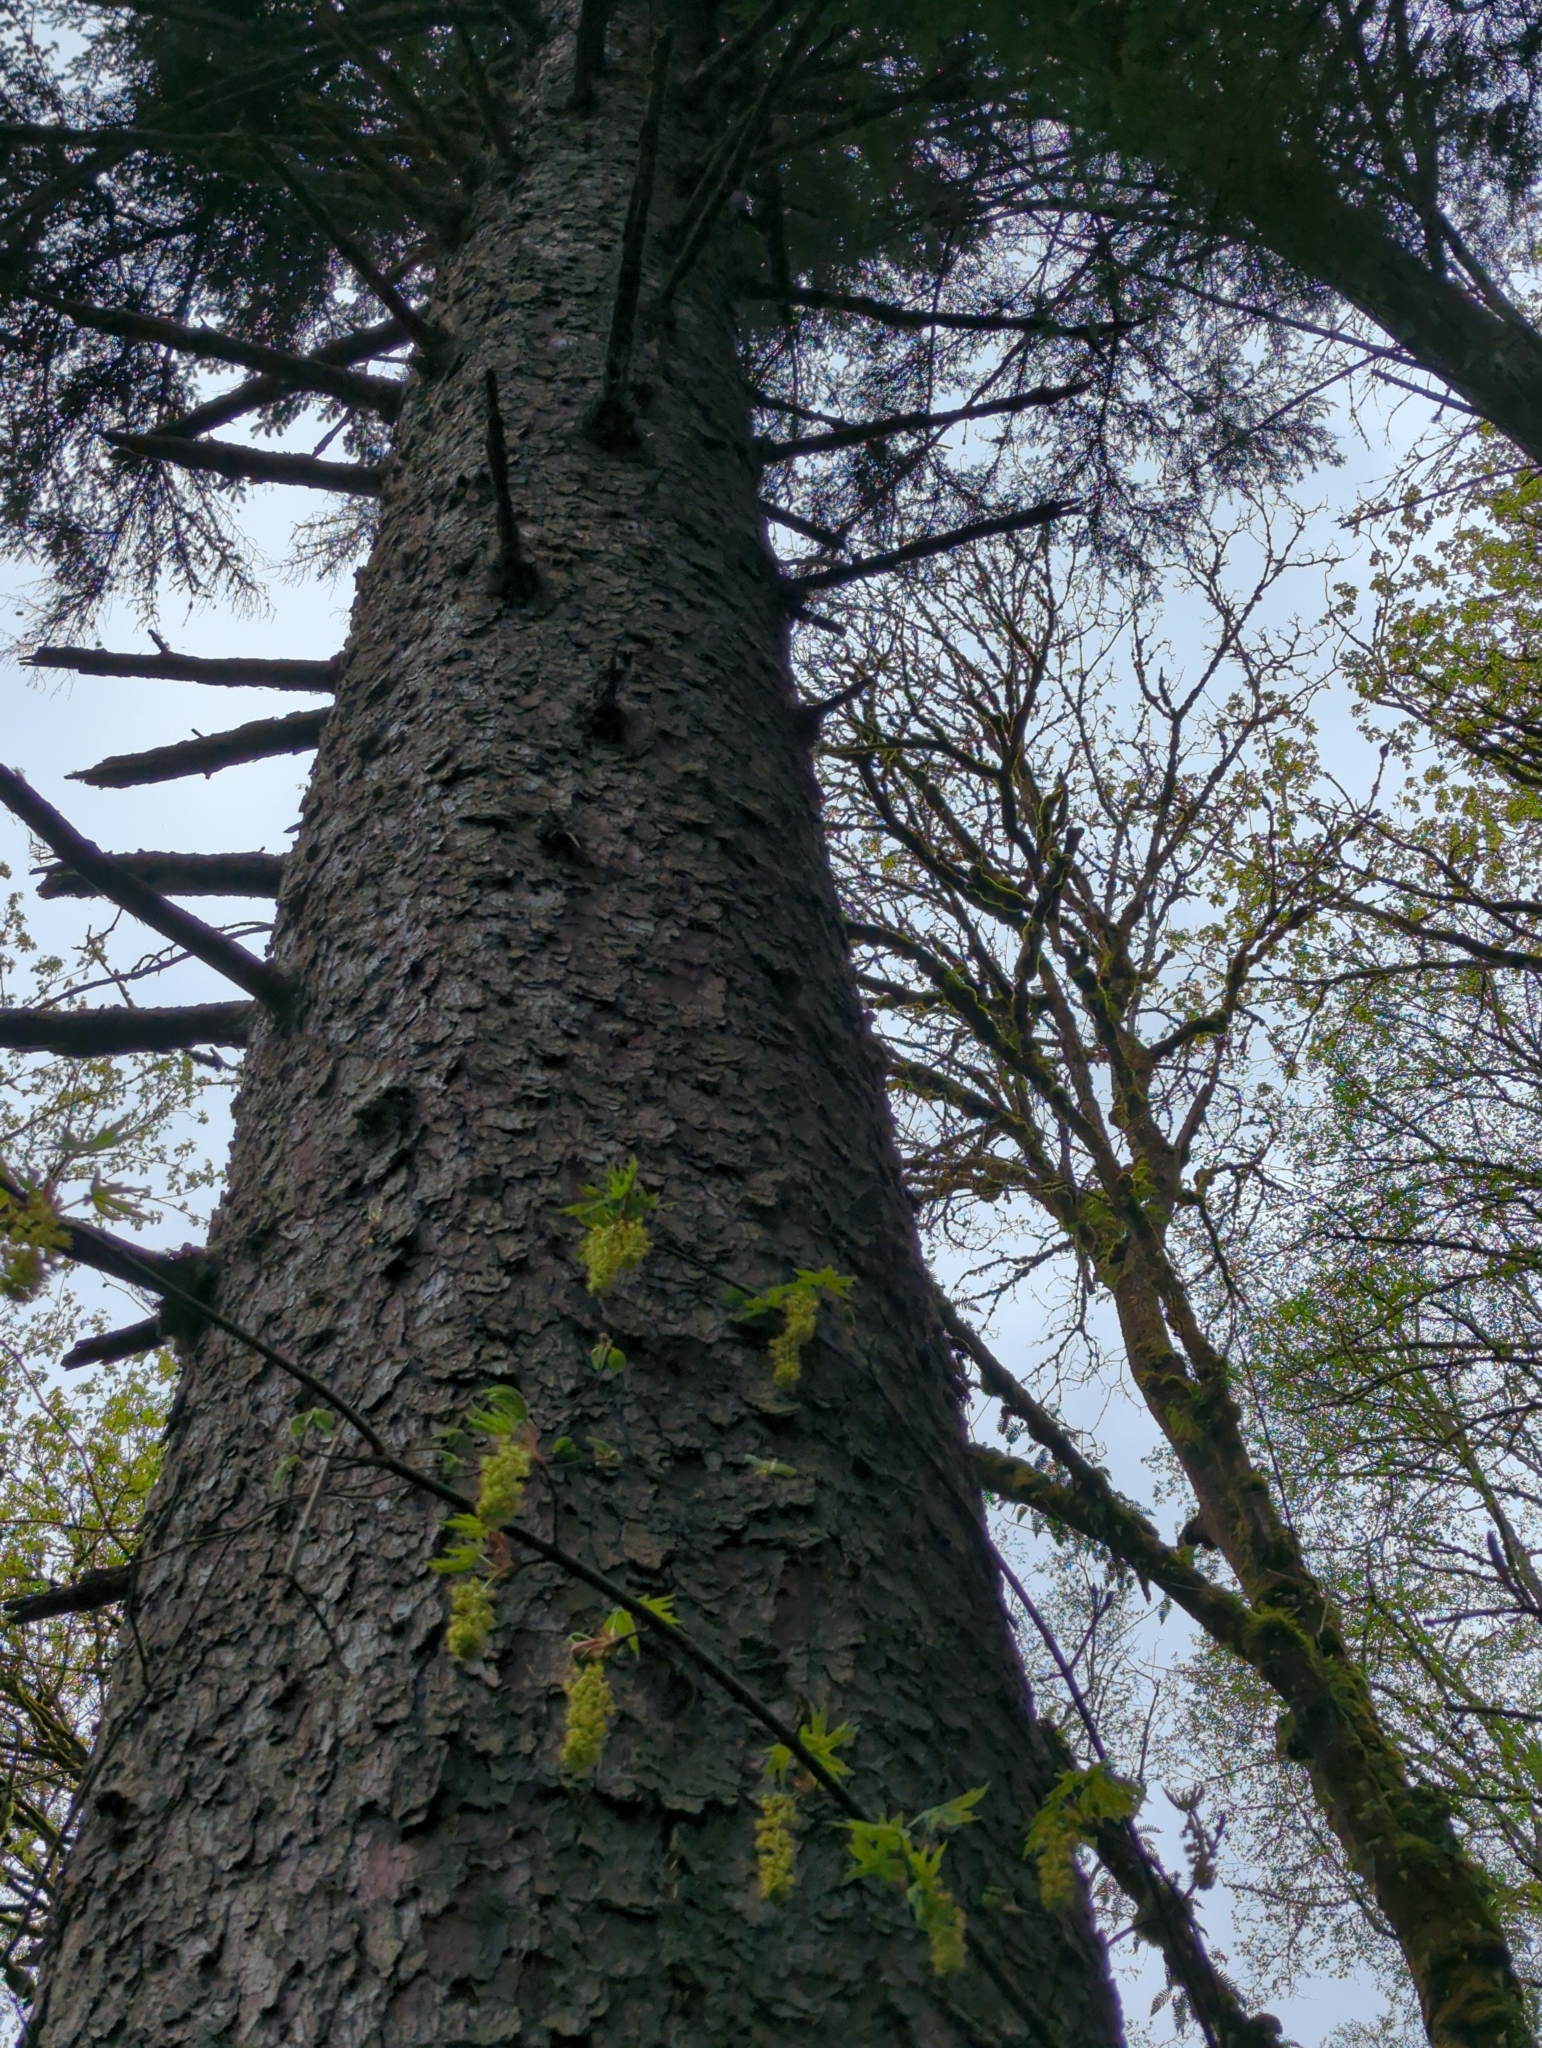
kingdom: Plantae
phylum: Tracheophyta
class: Pinopsida
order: Pinales
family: Pinaceae
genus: Picea
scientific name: Picea sitchensis
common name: Sitka spruce
